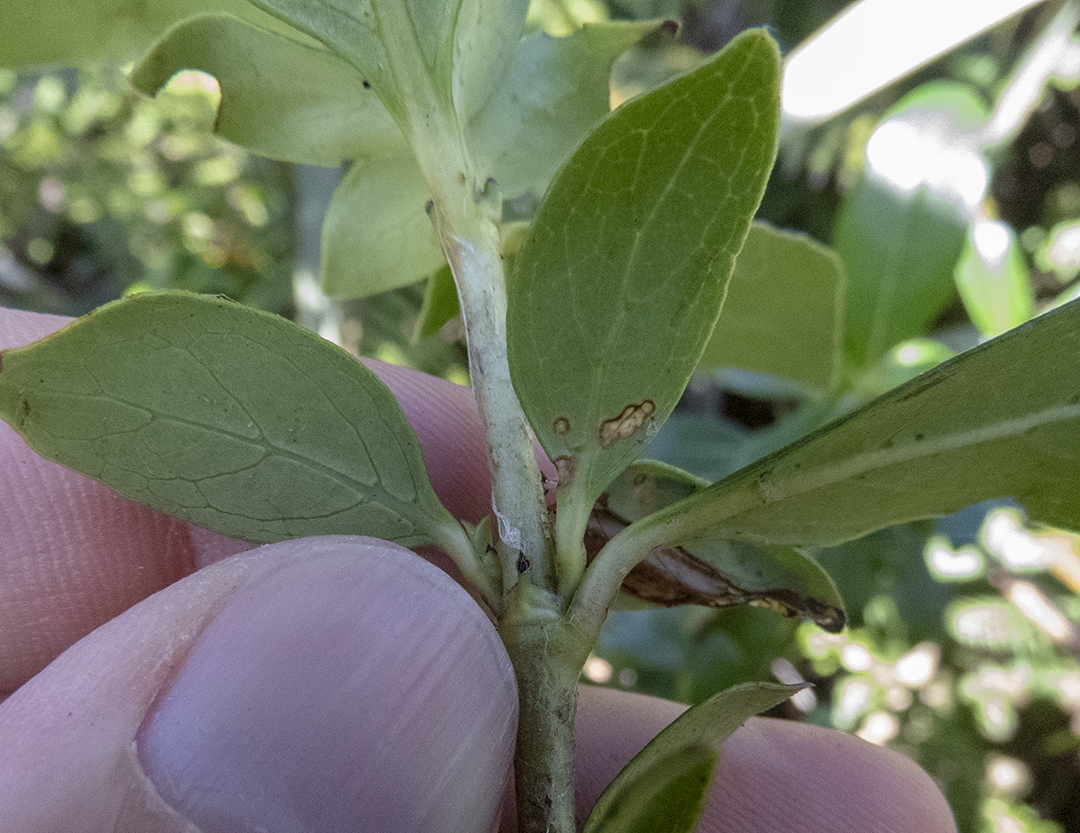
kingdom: Plantae
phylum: Tracheophyta
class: Magnoliopsida
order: Gentianales
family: Rubiaceae
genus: Coprosma
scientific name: Coprosma robusta
